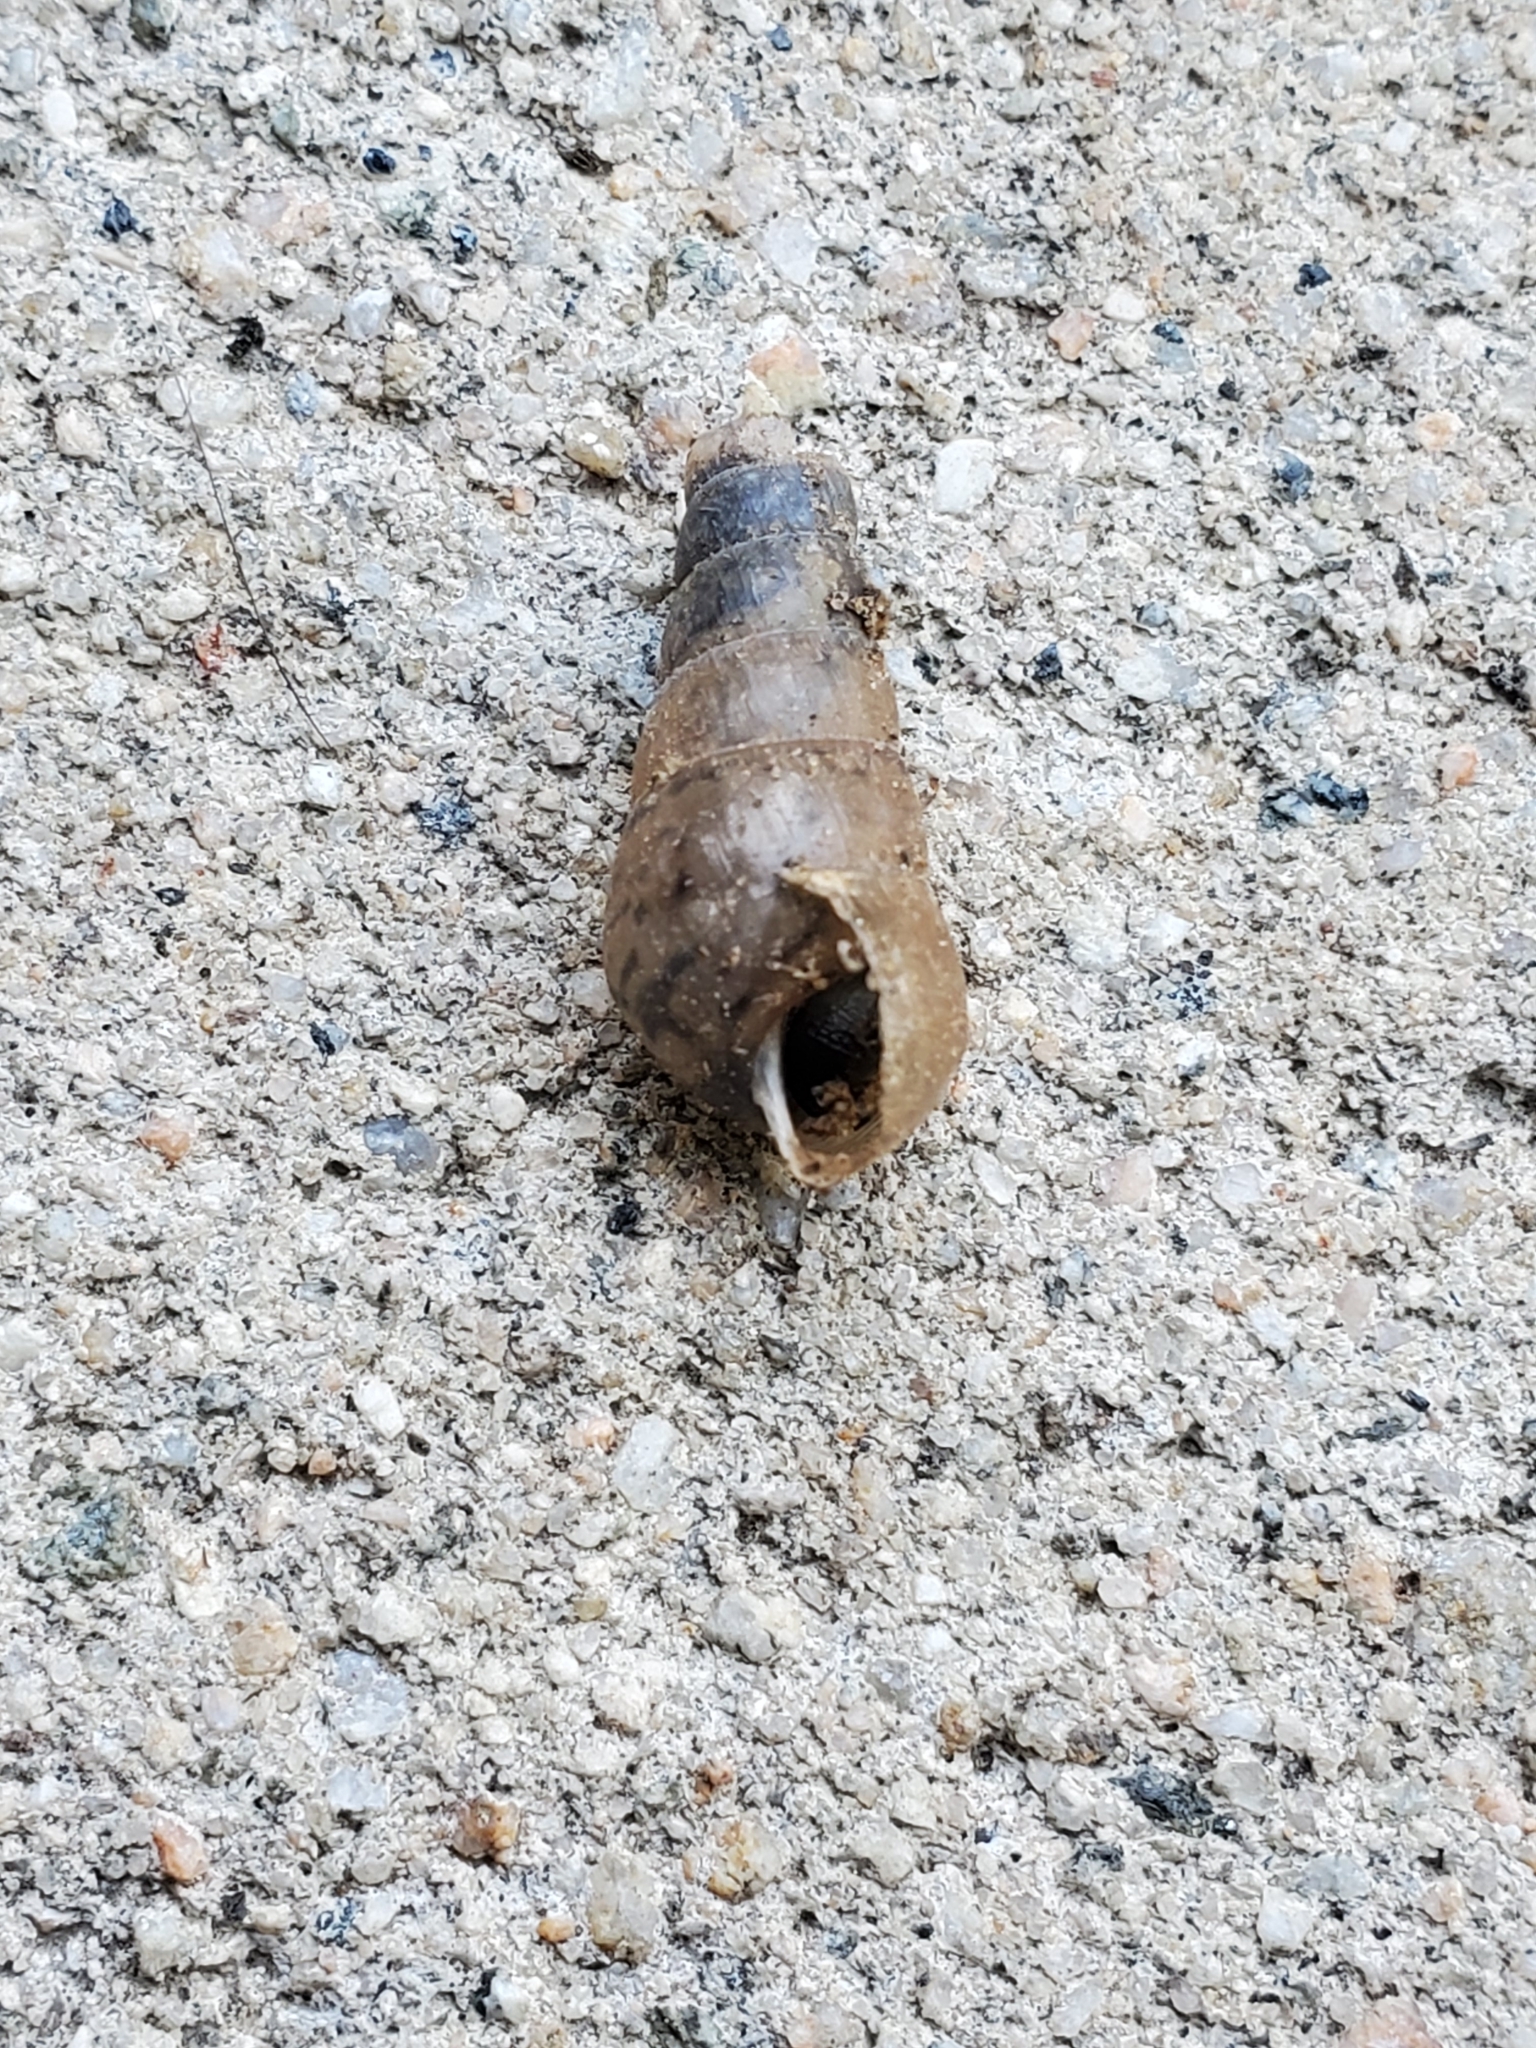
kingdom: Animalia
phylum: Mollusca
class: Gastropoda
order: Stylommatophora
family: Achatinidae
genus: Rumina
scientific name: Rumina decollata
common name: Decollate snail
